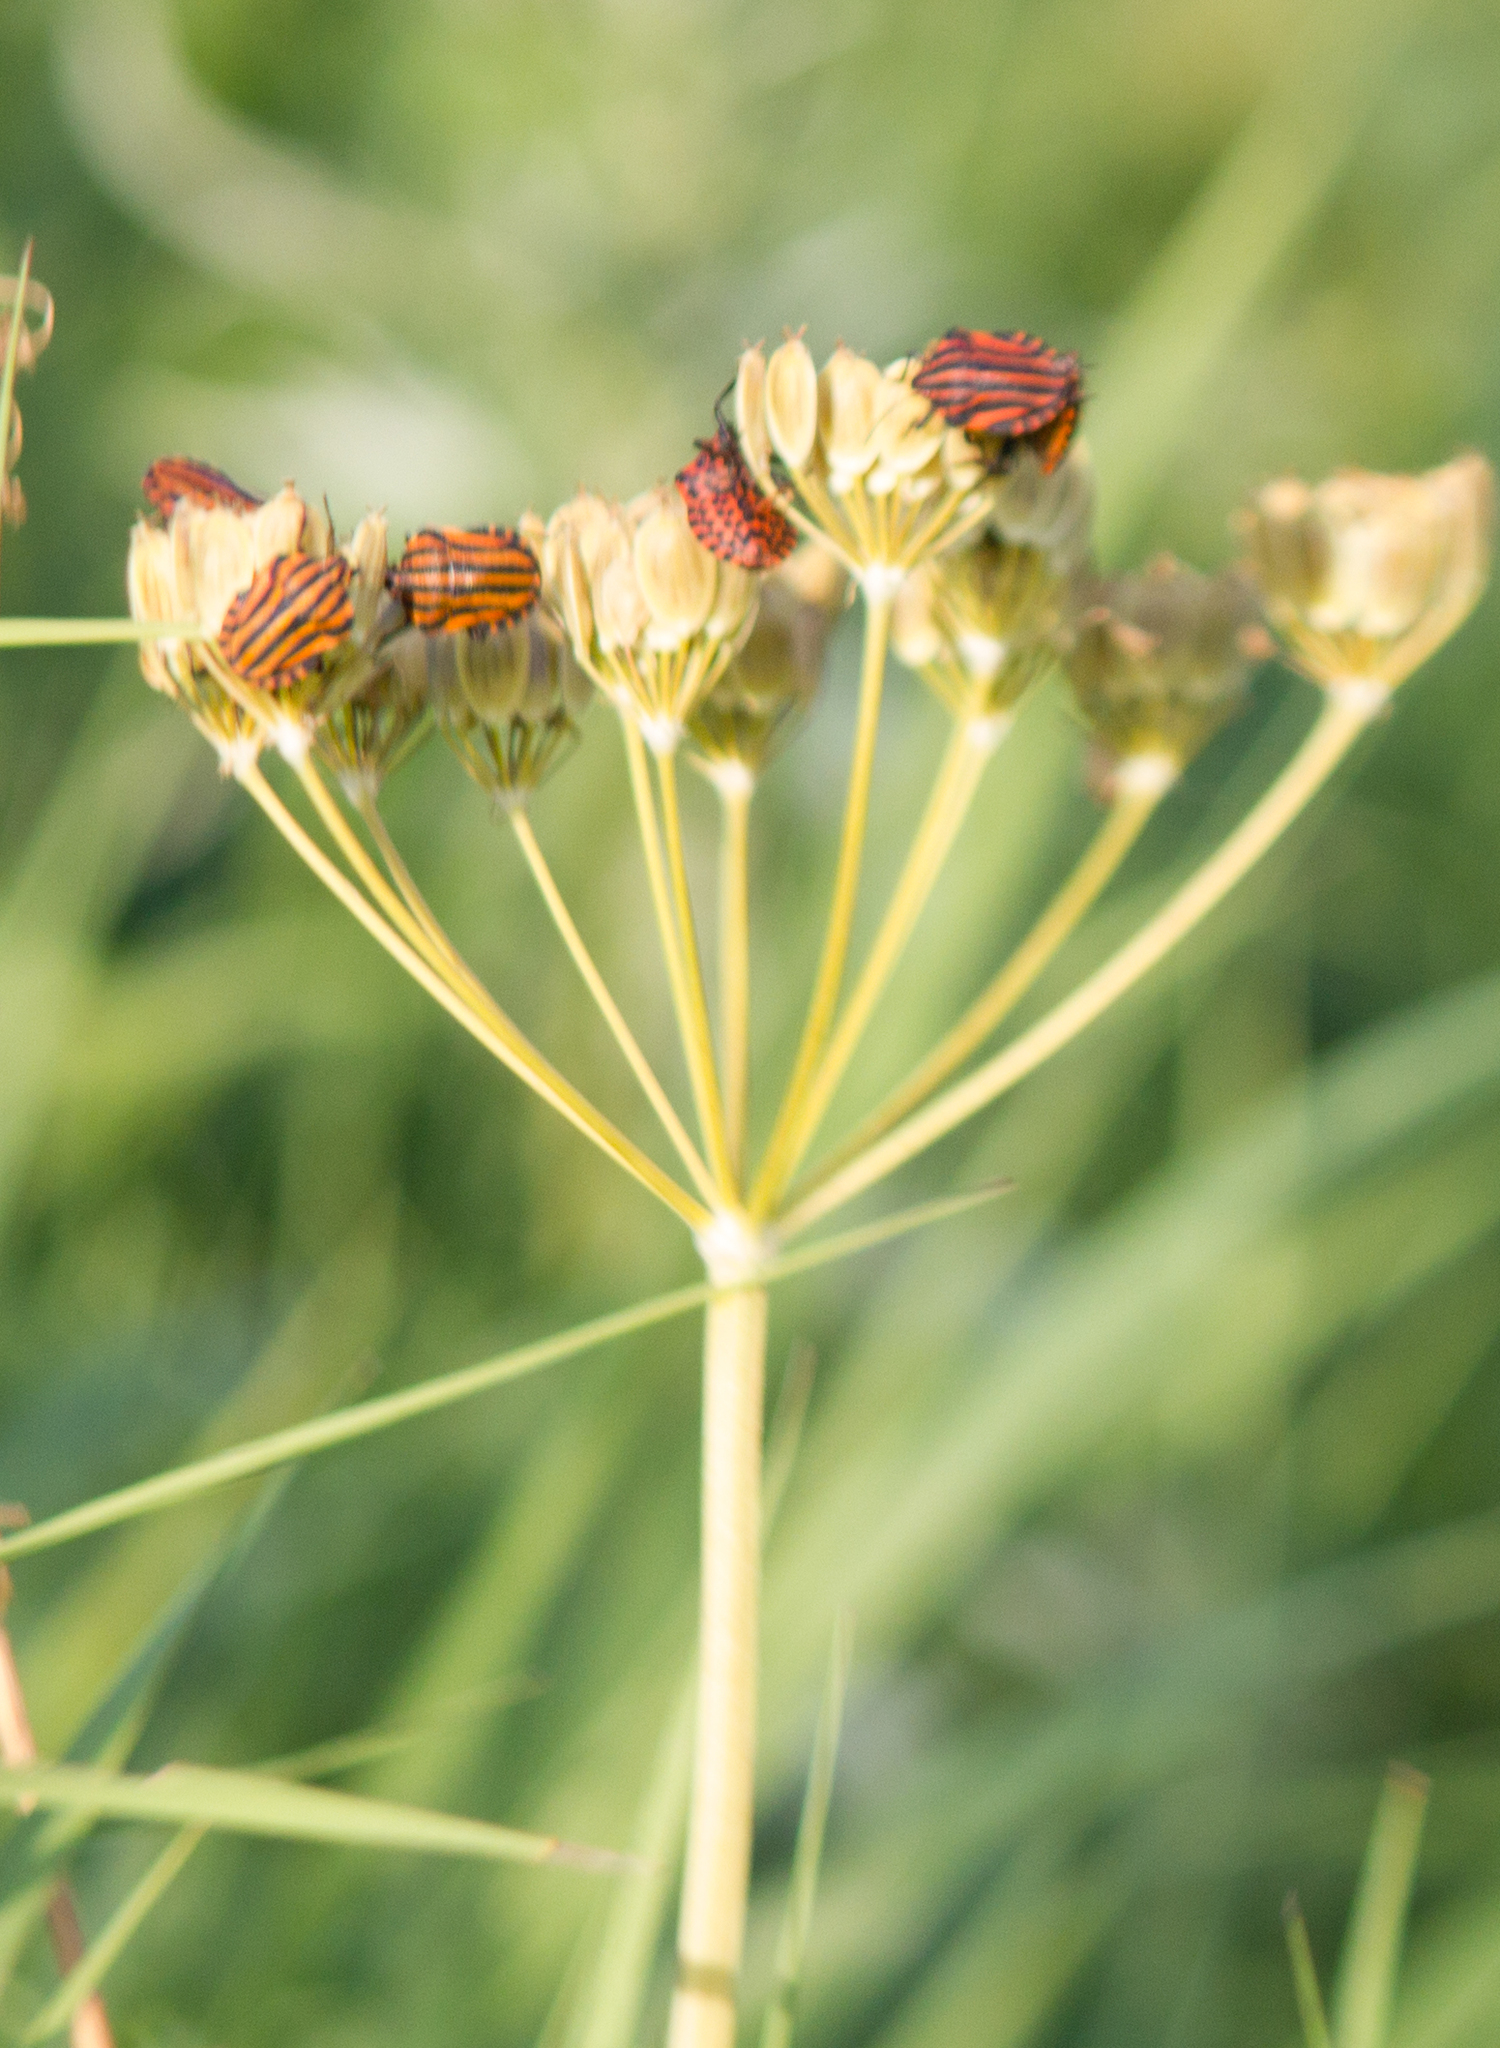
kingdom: Animalia
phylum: Arthropoda
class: Insecta
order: Hemiptera
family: Pentatomidae
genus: Graphosoma
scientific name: Graphosoma italicum
